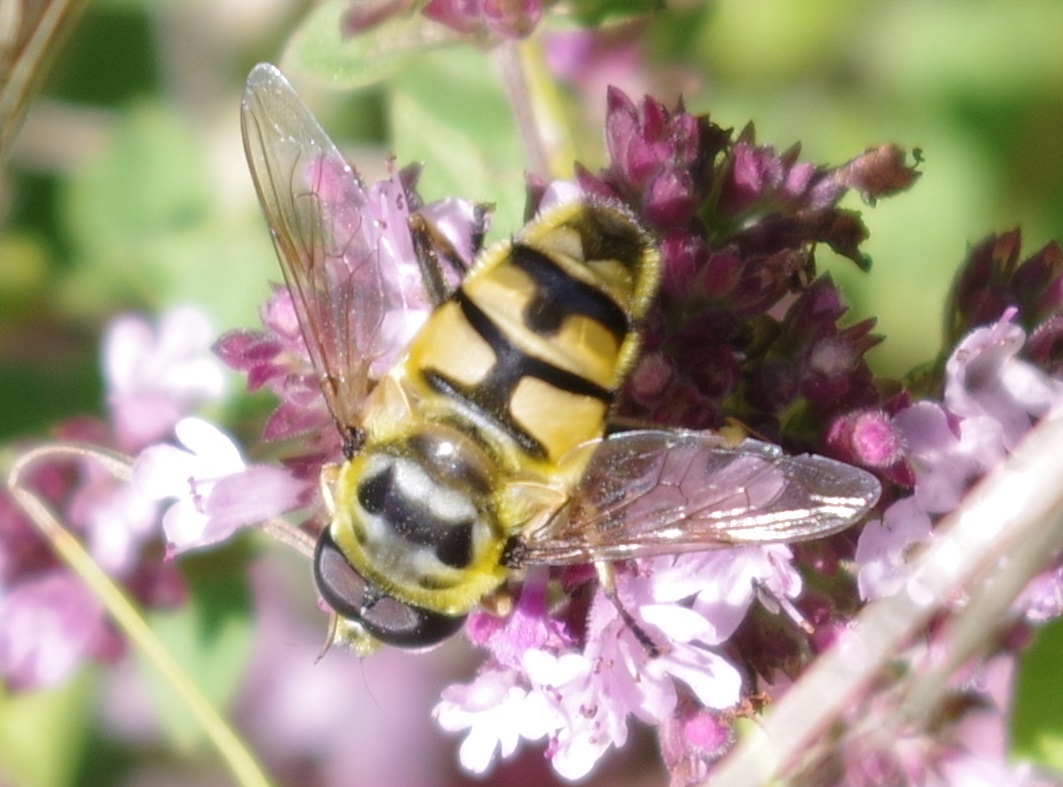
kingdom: Animalia
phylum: Arthropoda
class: Insecta
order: Diptera
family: Syrphidae
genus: Myathropa
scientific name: Myathropa florea
